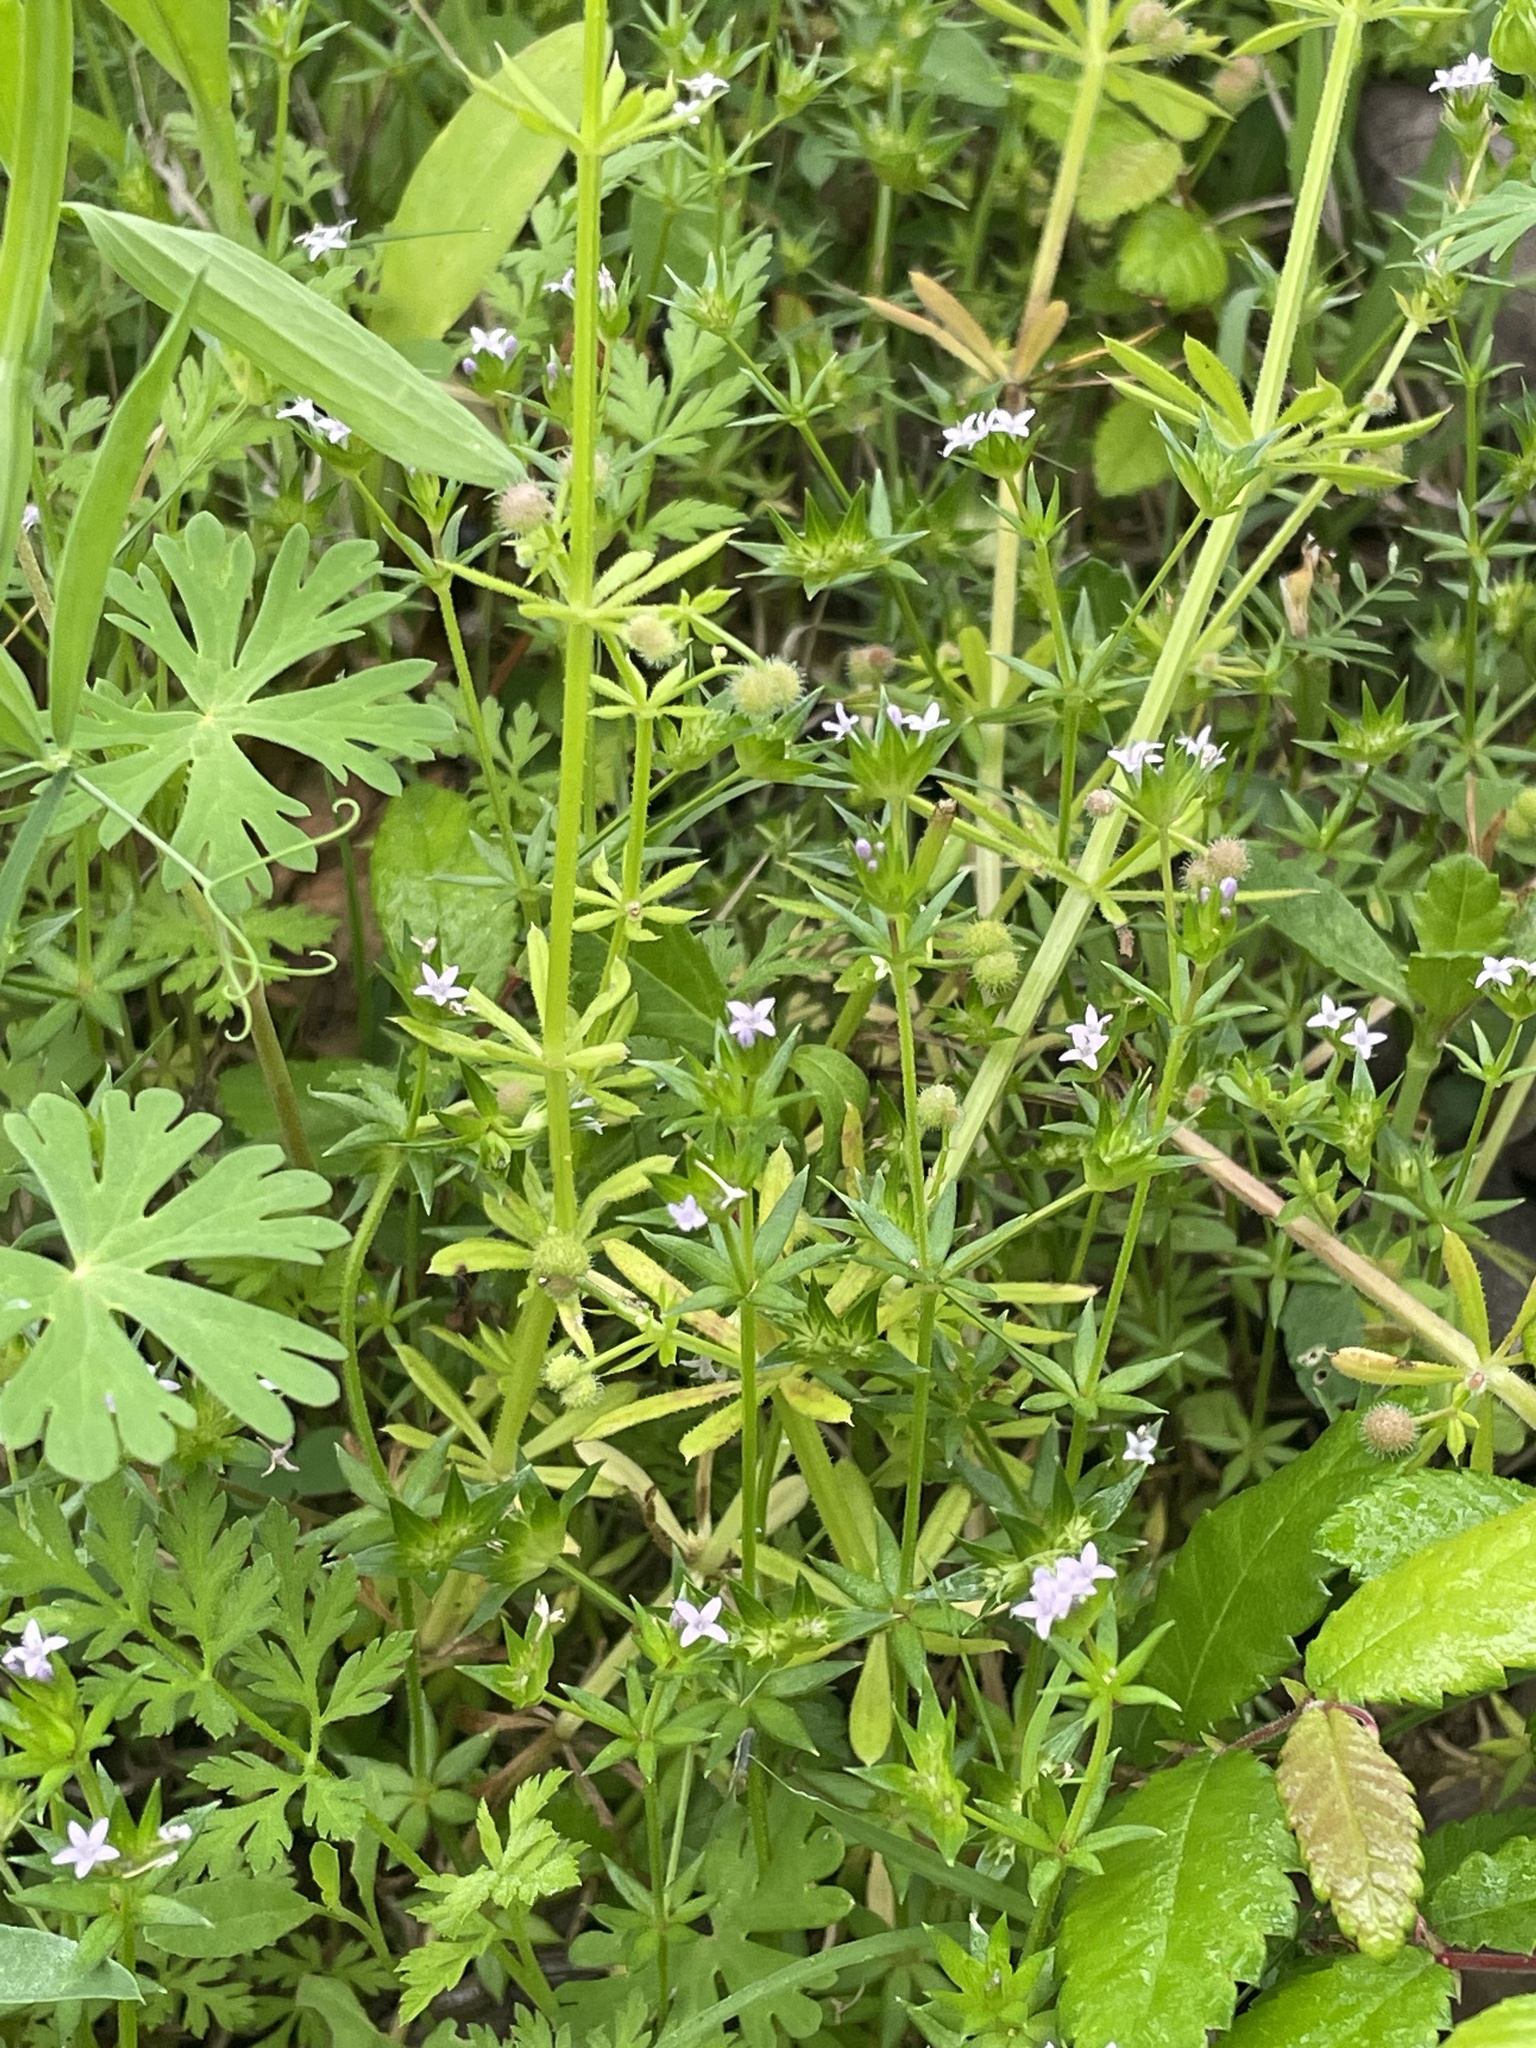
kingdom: Plantae
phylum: Tracheophyta
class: Magnoliopsida
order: Gentianales
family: Rubiaceae
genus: Sherardia
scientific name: Sherardia arvensis
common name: Field madder
